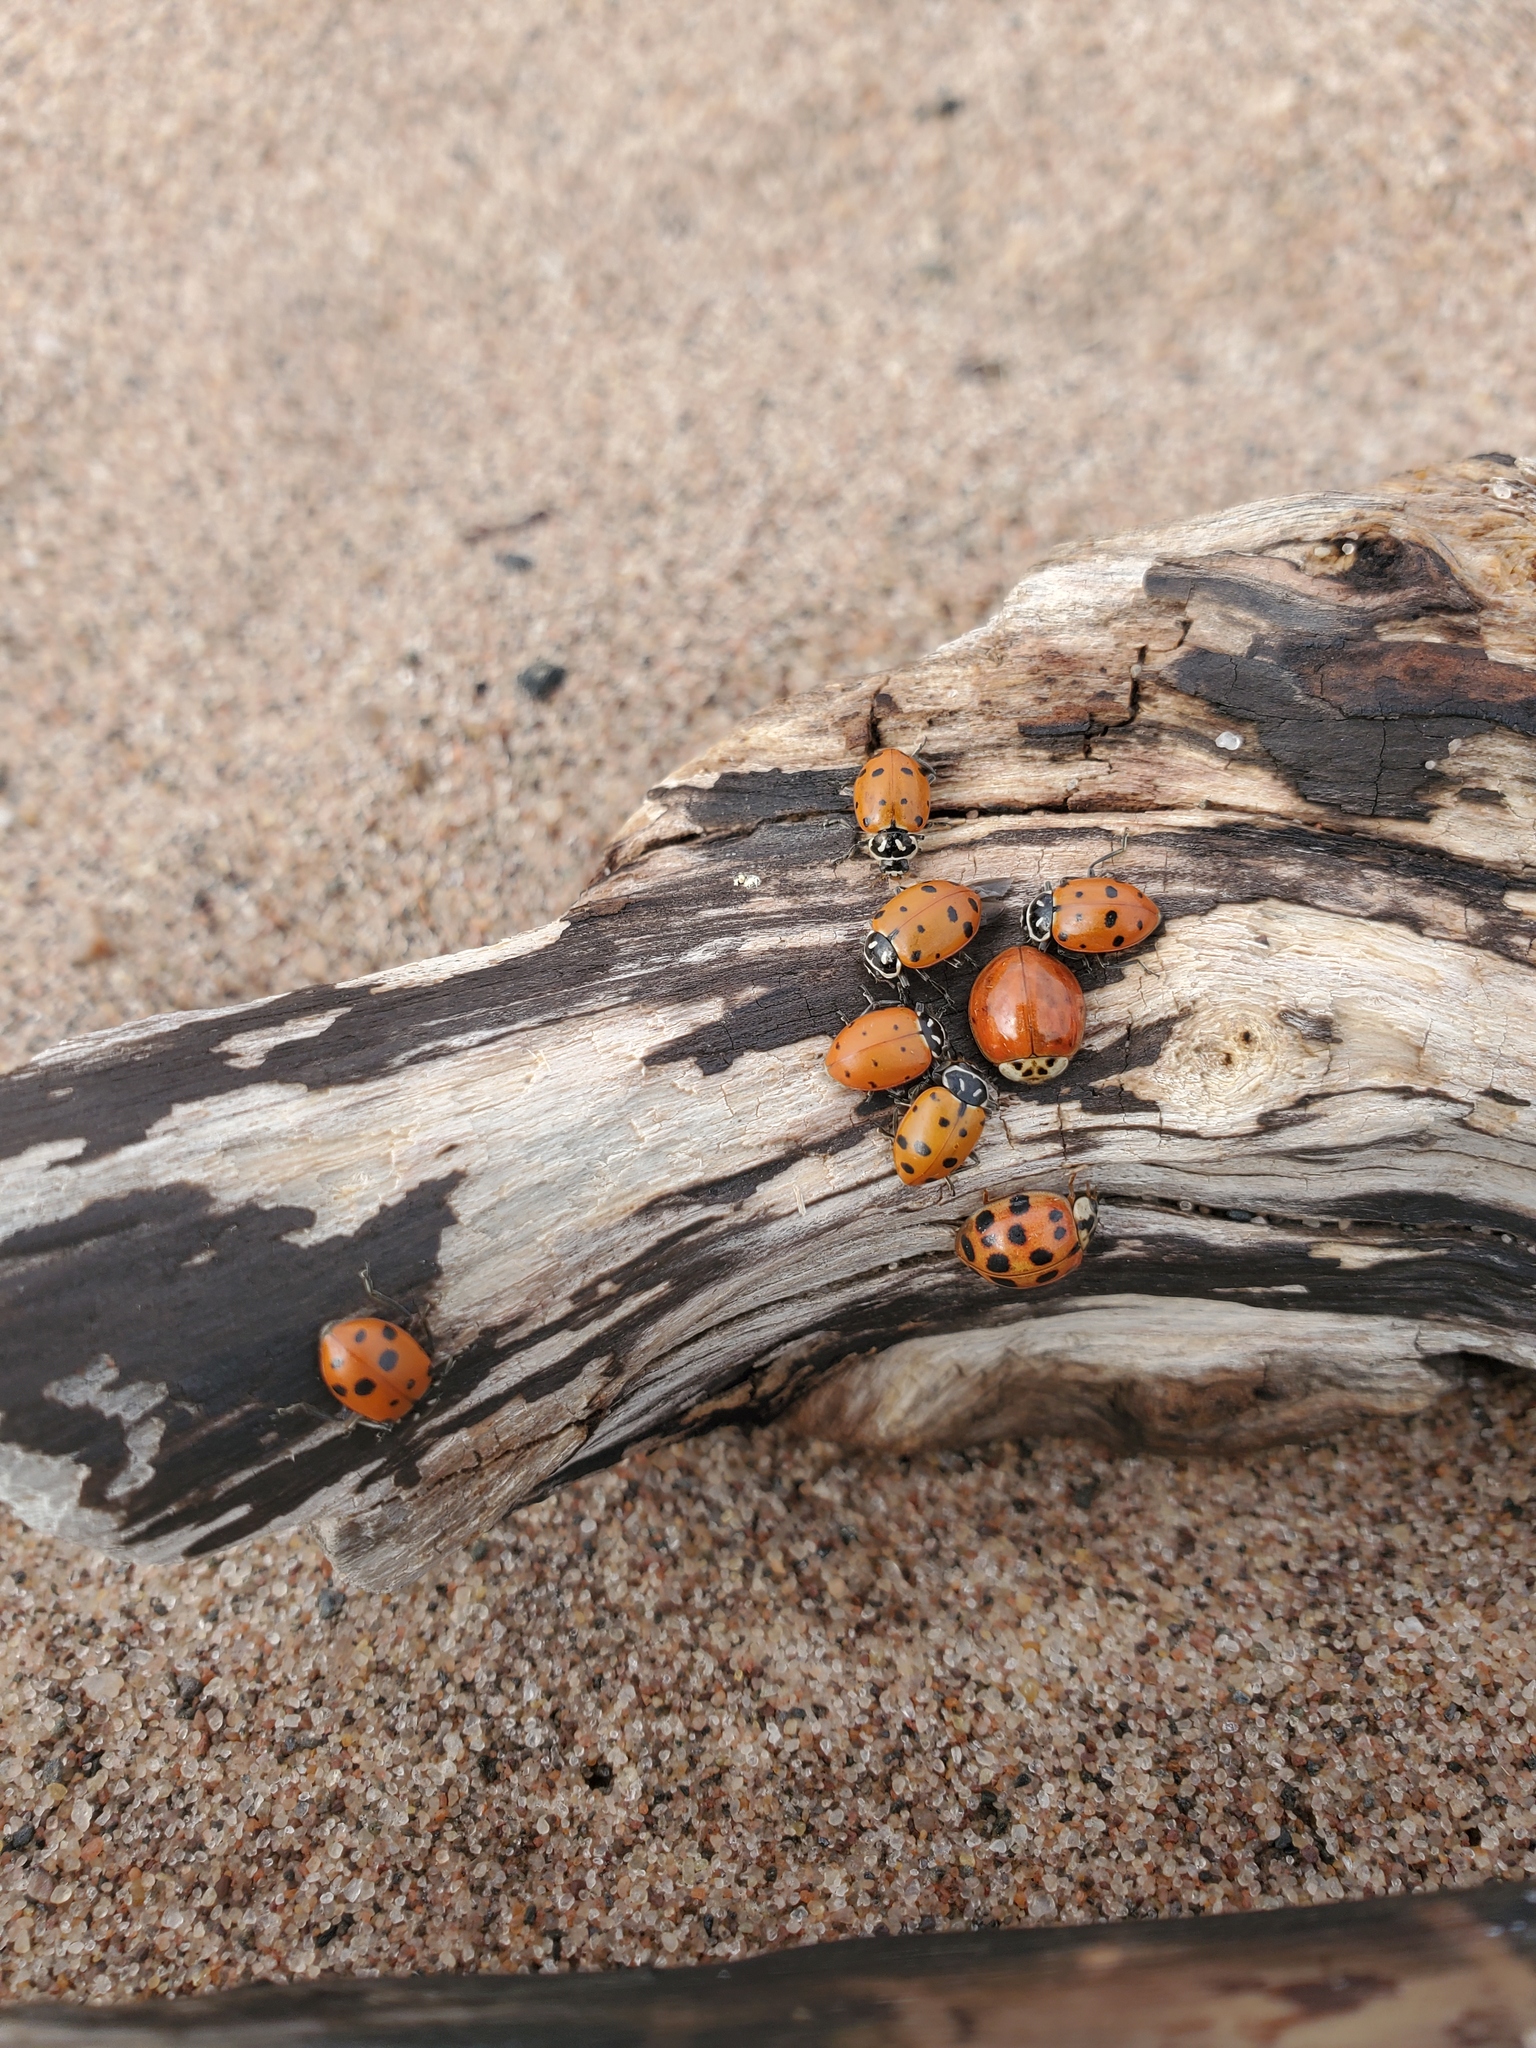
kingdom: Animalia
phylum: Arthropoda
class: Insecta
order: Coleoptera
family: Coccinellidae
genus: Hippodamia
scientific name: Hippodamia convergens
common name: Convergent lady beetle
